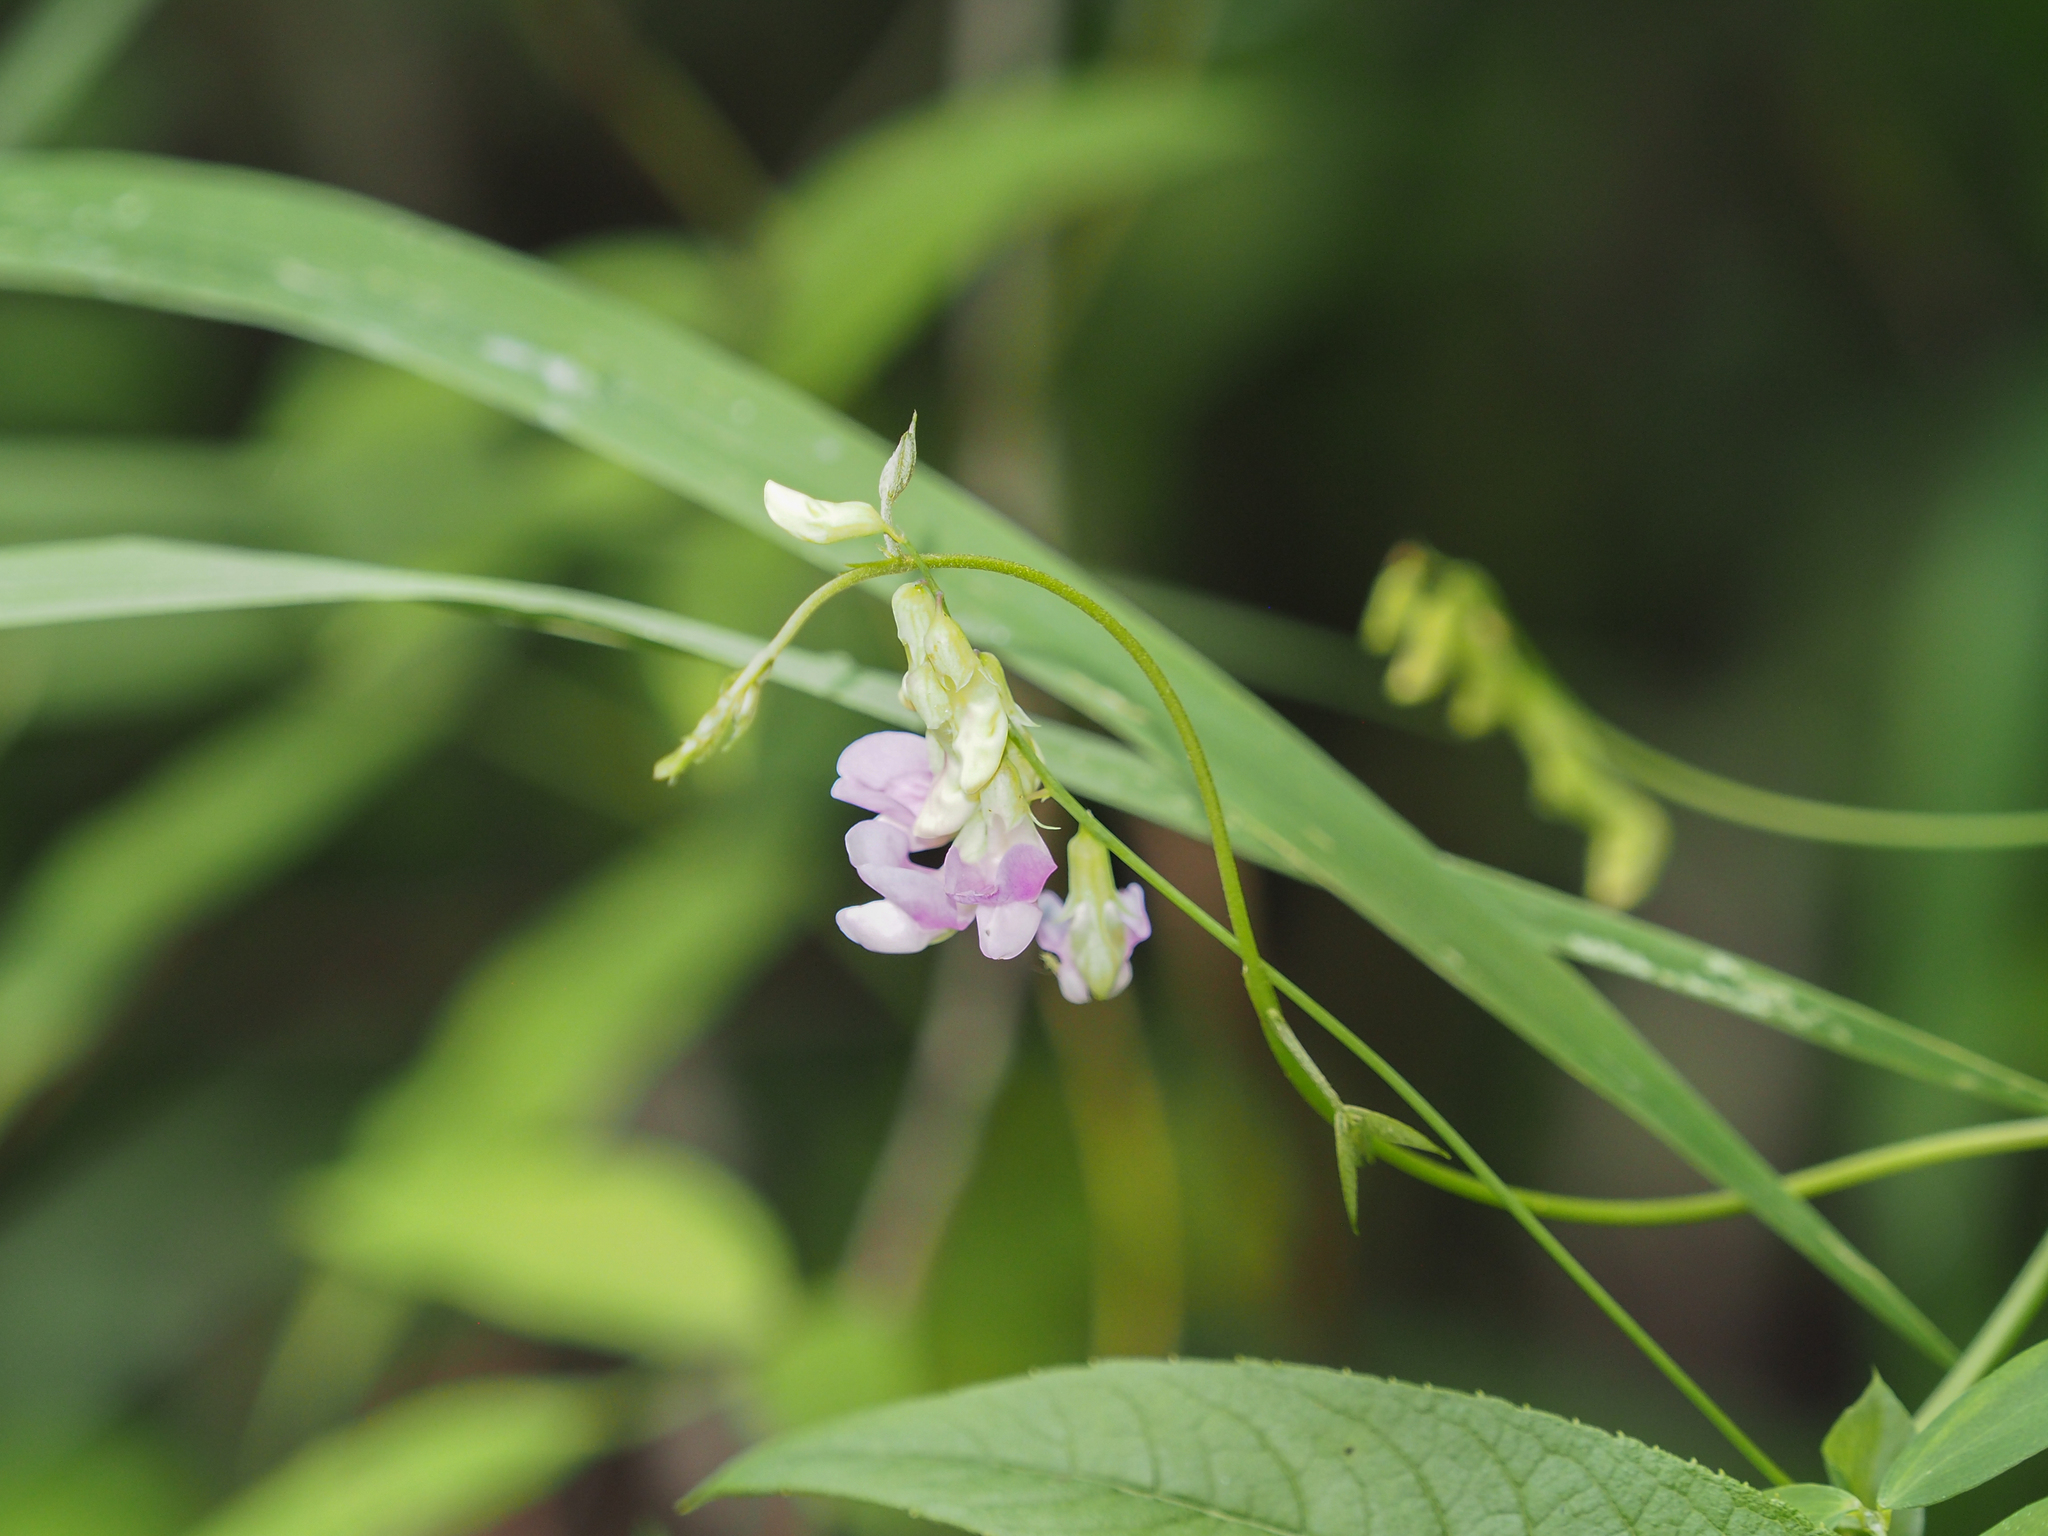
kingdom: Plantae
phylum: Tracheophyta
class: Magnoliopsida
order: Fabales
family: Fabaceae
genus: Lathyrus
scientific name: Lathyrus palustris
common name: Marsh pea
